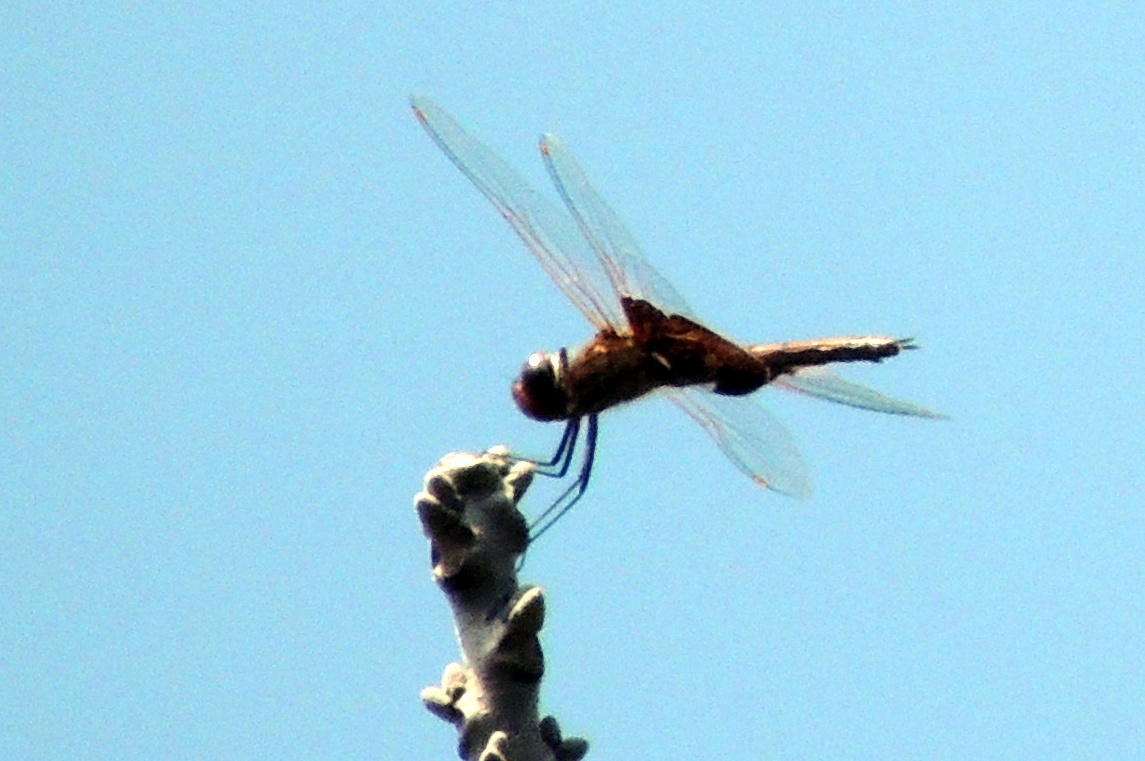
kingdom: Animalia
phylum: Arthropoda
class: Insecta
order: Odonata
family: Libellulidae
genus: Tramea
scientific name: Tramea carolina
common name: Carolina saddlebags
